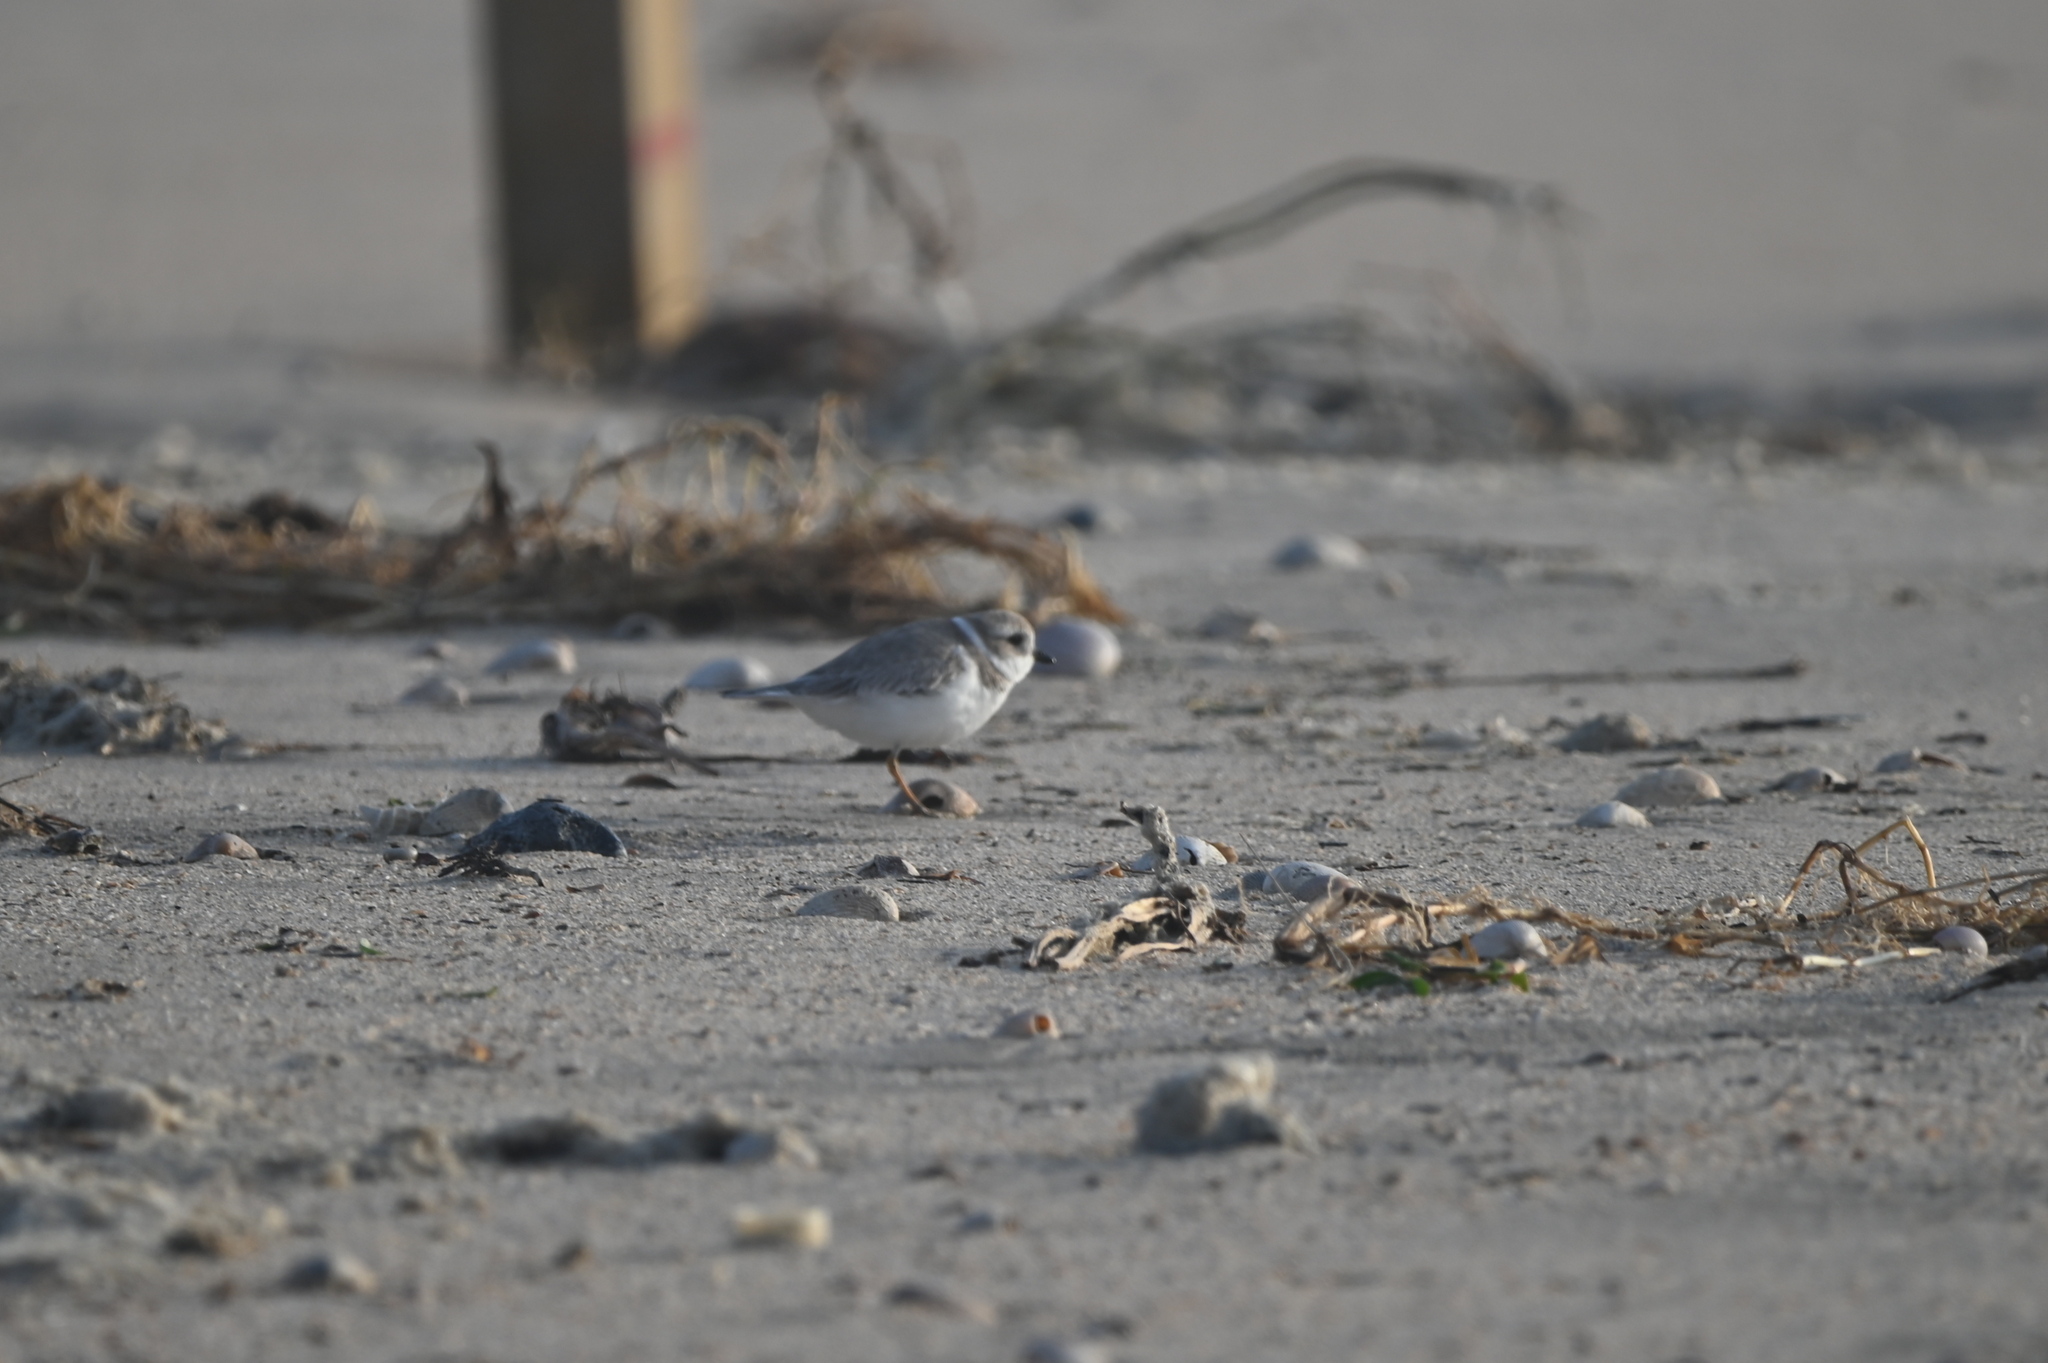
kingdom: Animalia
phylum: Chordata
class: Aves
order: Charadriiformes
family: Charadriidae
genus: Charadrius
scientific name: Charadrius melodus
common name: Piping plover
